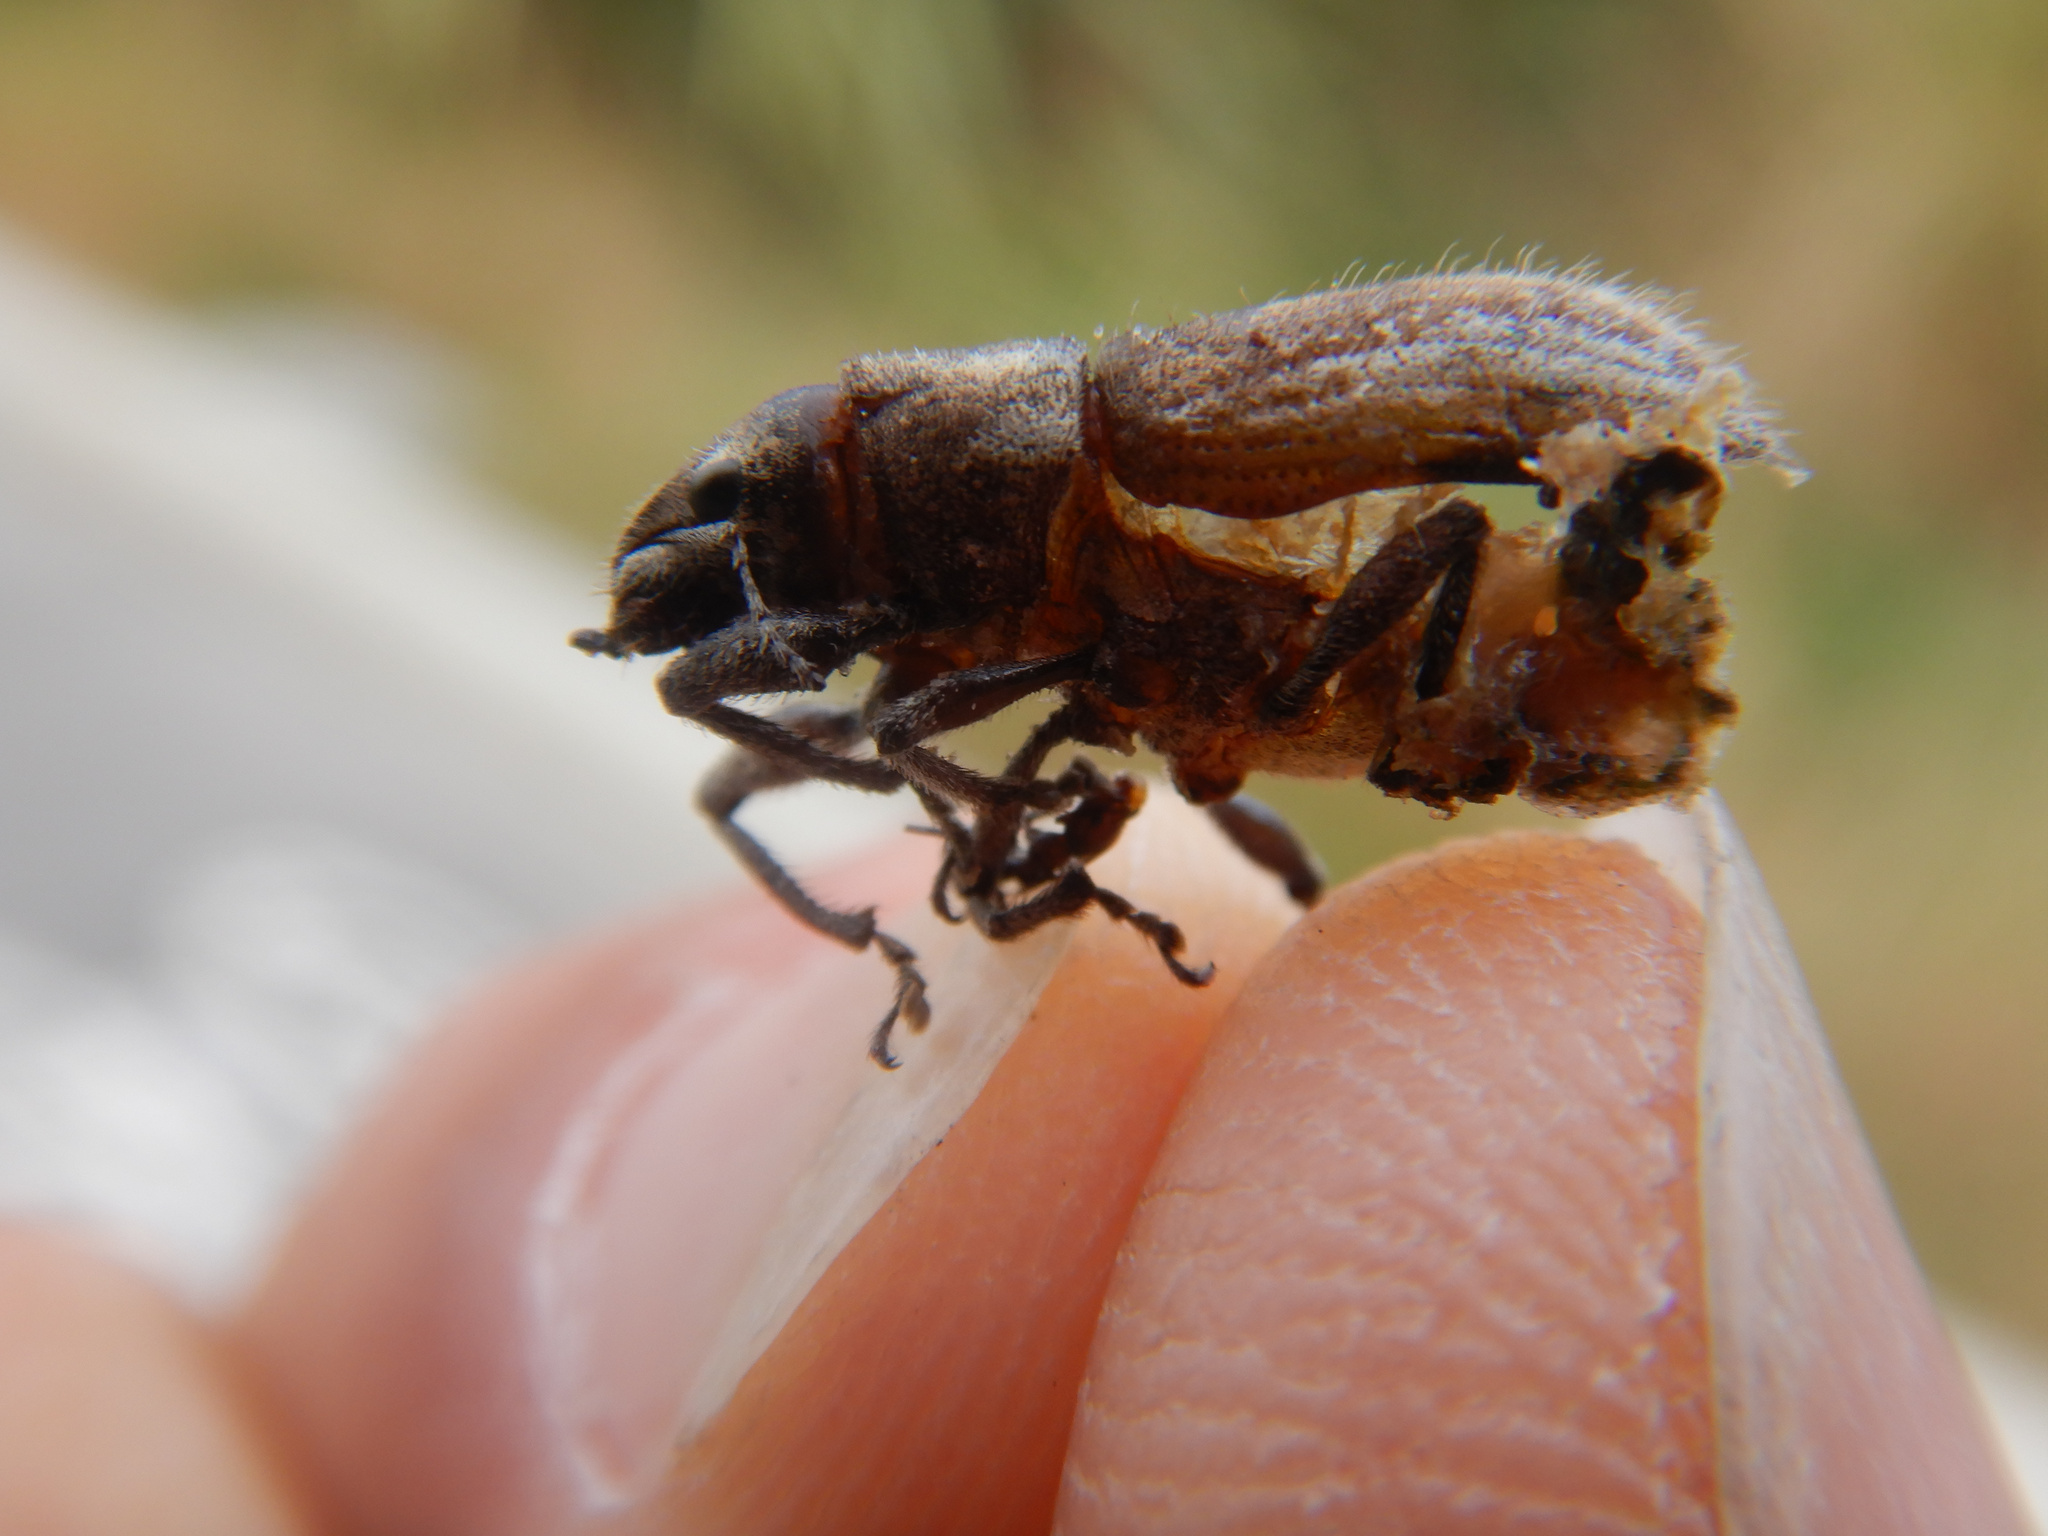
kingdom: Animalia
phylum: Arthropoda
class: Insecta
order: Coleoptera
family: Curculionidae
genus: Naupactus
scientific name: Naupactus leucoloma
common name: Whitefringed beetle
